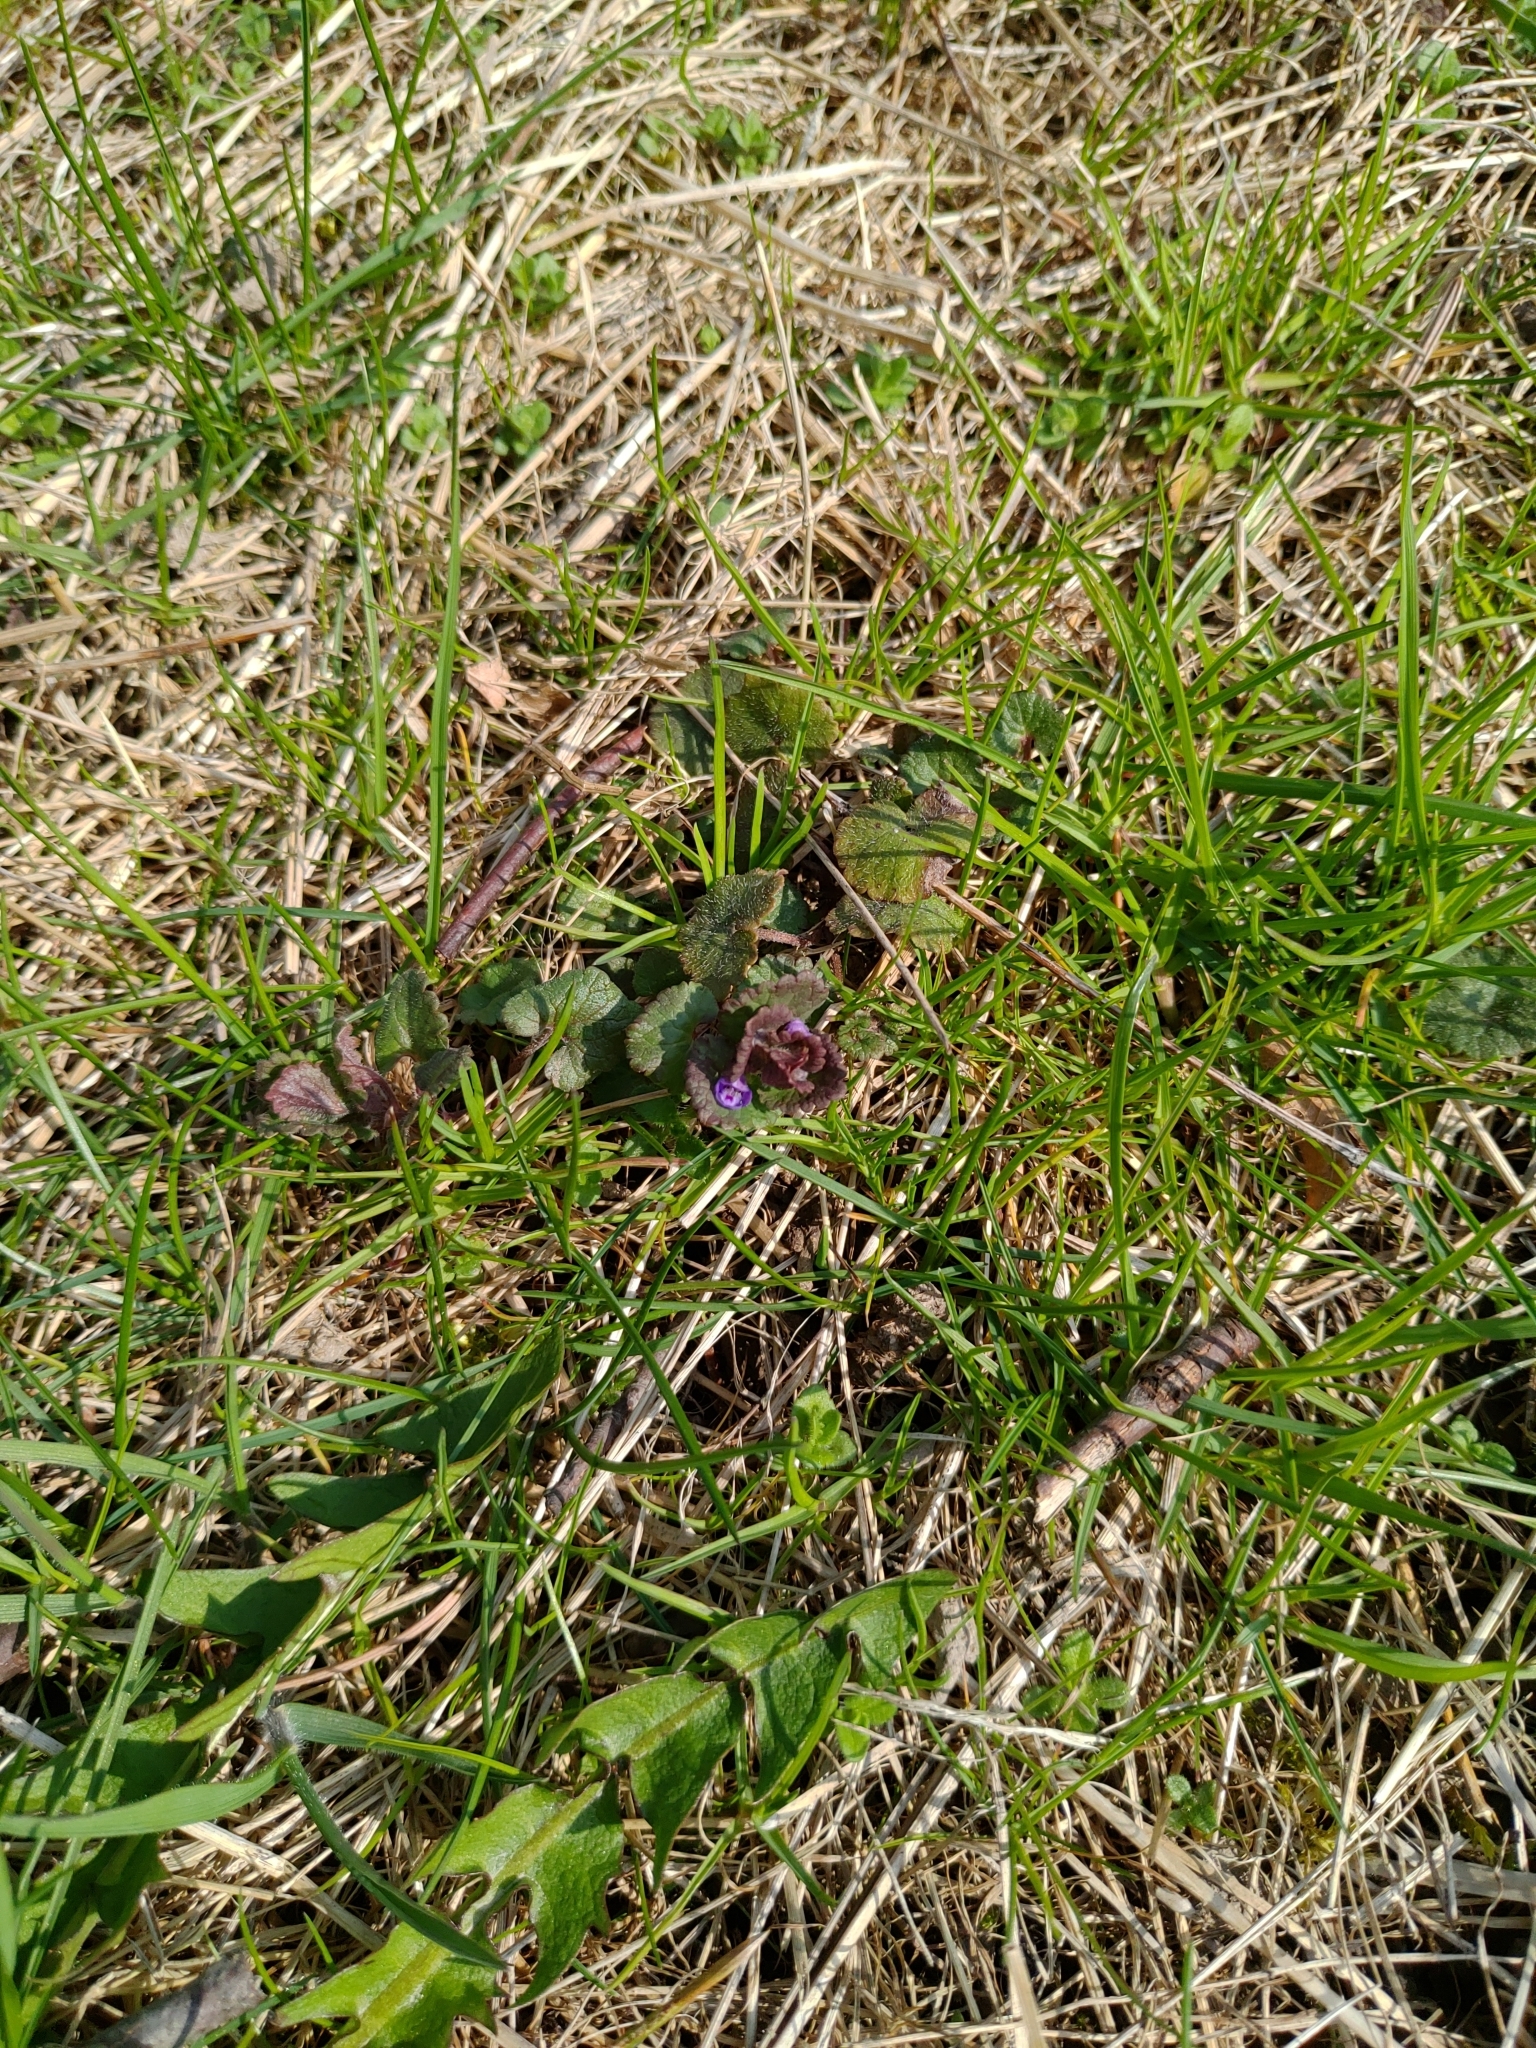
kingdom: Plantae
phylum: Tracheophyta
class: Magnoliopsida
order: Lamiales
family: Lamiaceae
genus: Glechoma
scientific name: Glechoma hederacea
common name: Ground ivy
